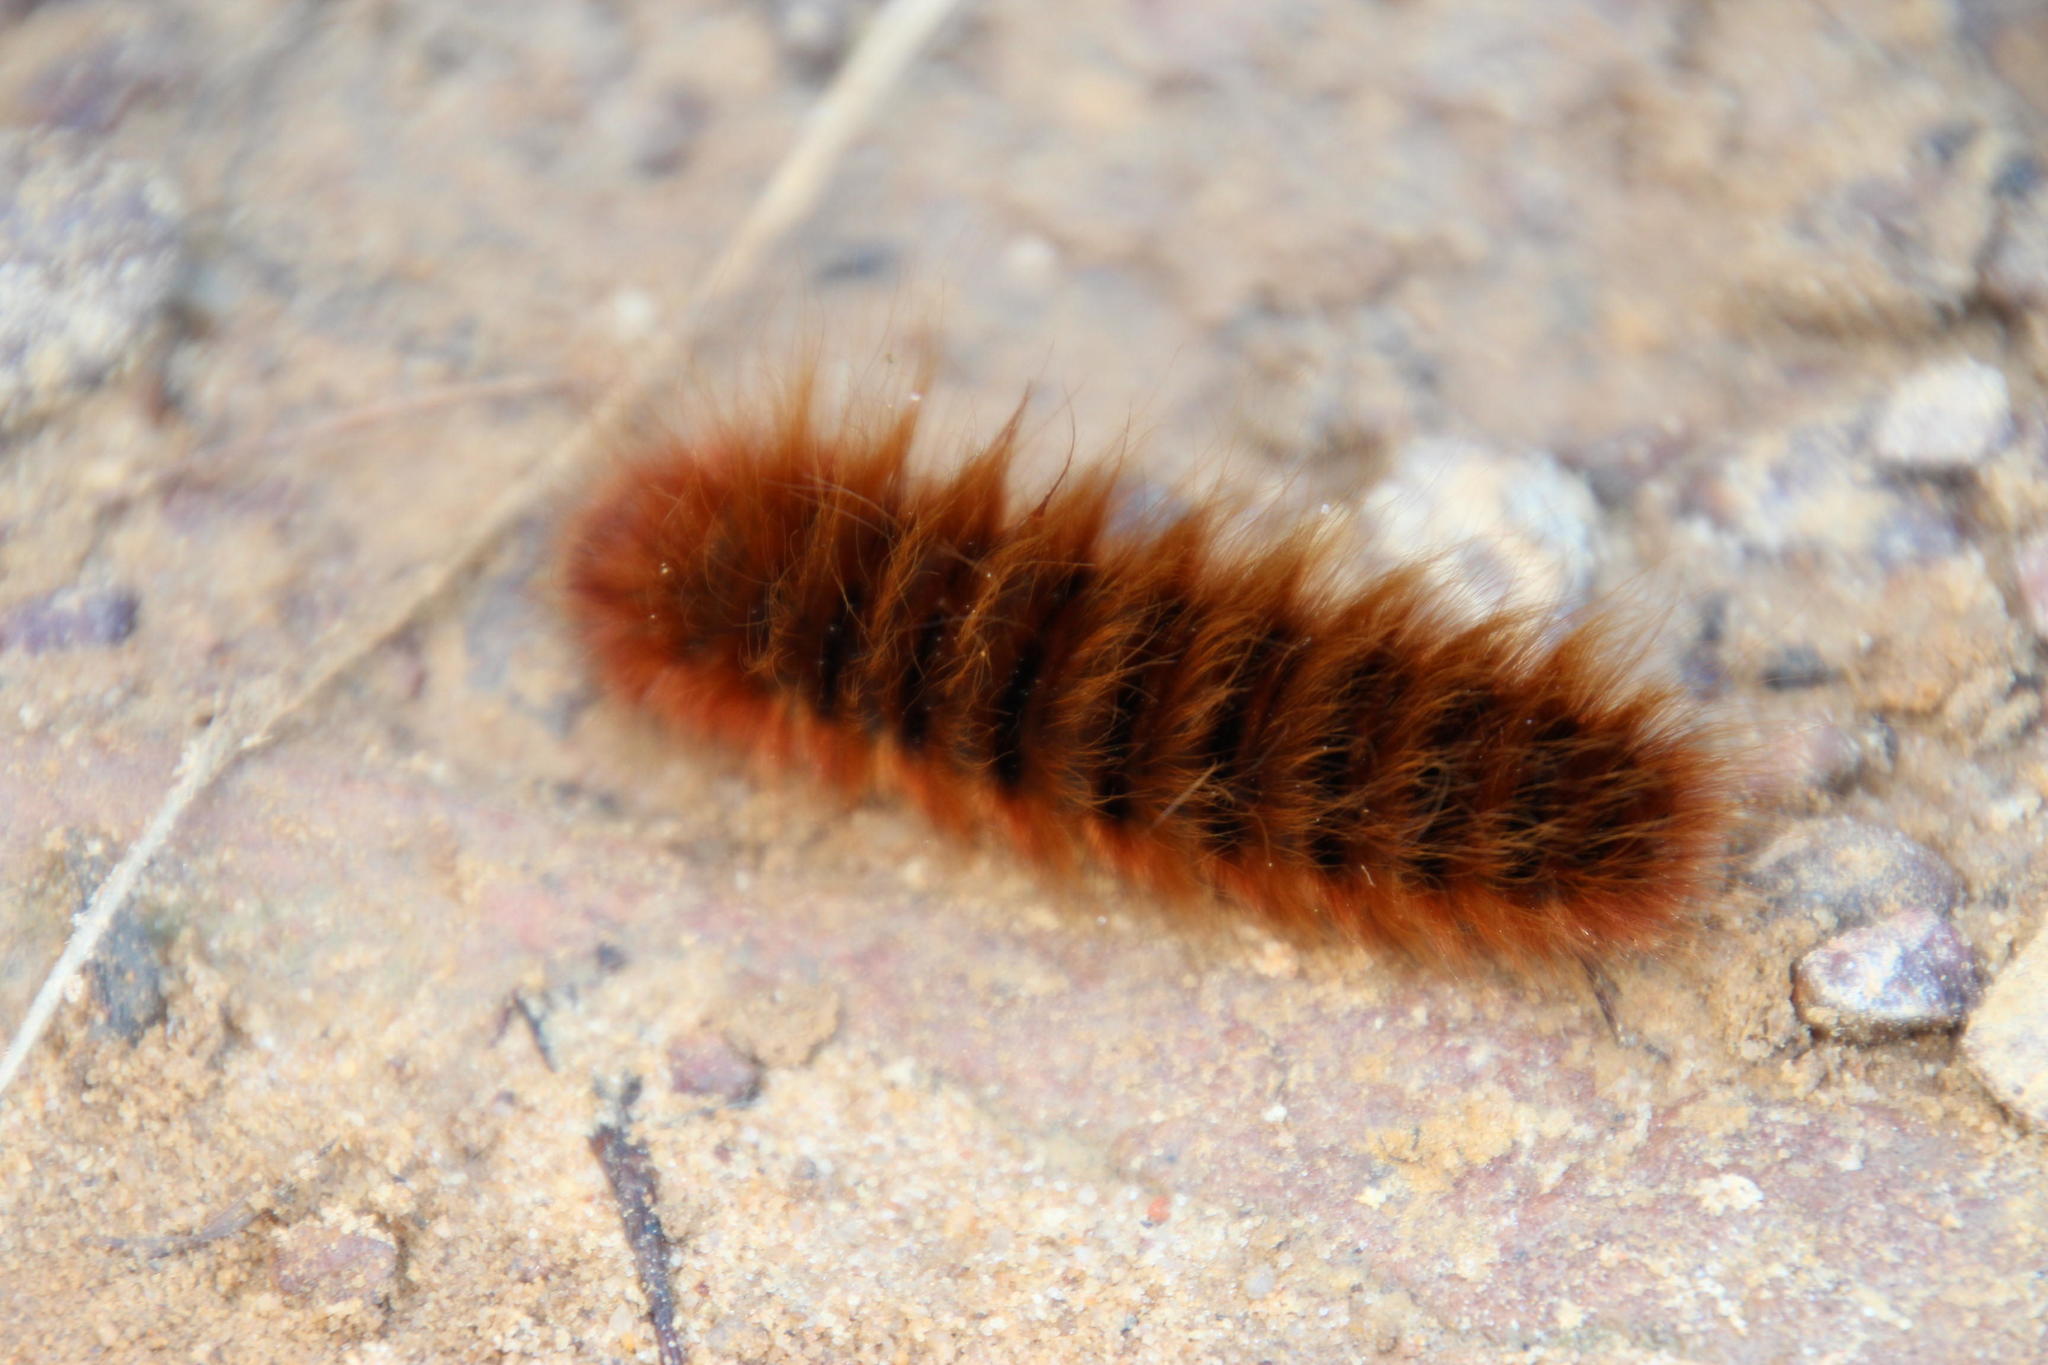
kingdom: Animalia
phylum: Arthropoda
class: Insecta
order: Lepidoptera
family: Lasiocampidae
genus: Mesocelis
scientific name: Mesocelis monticola
